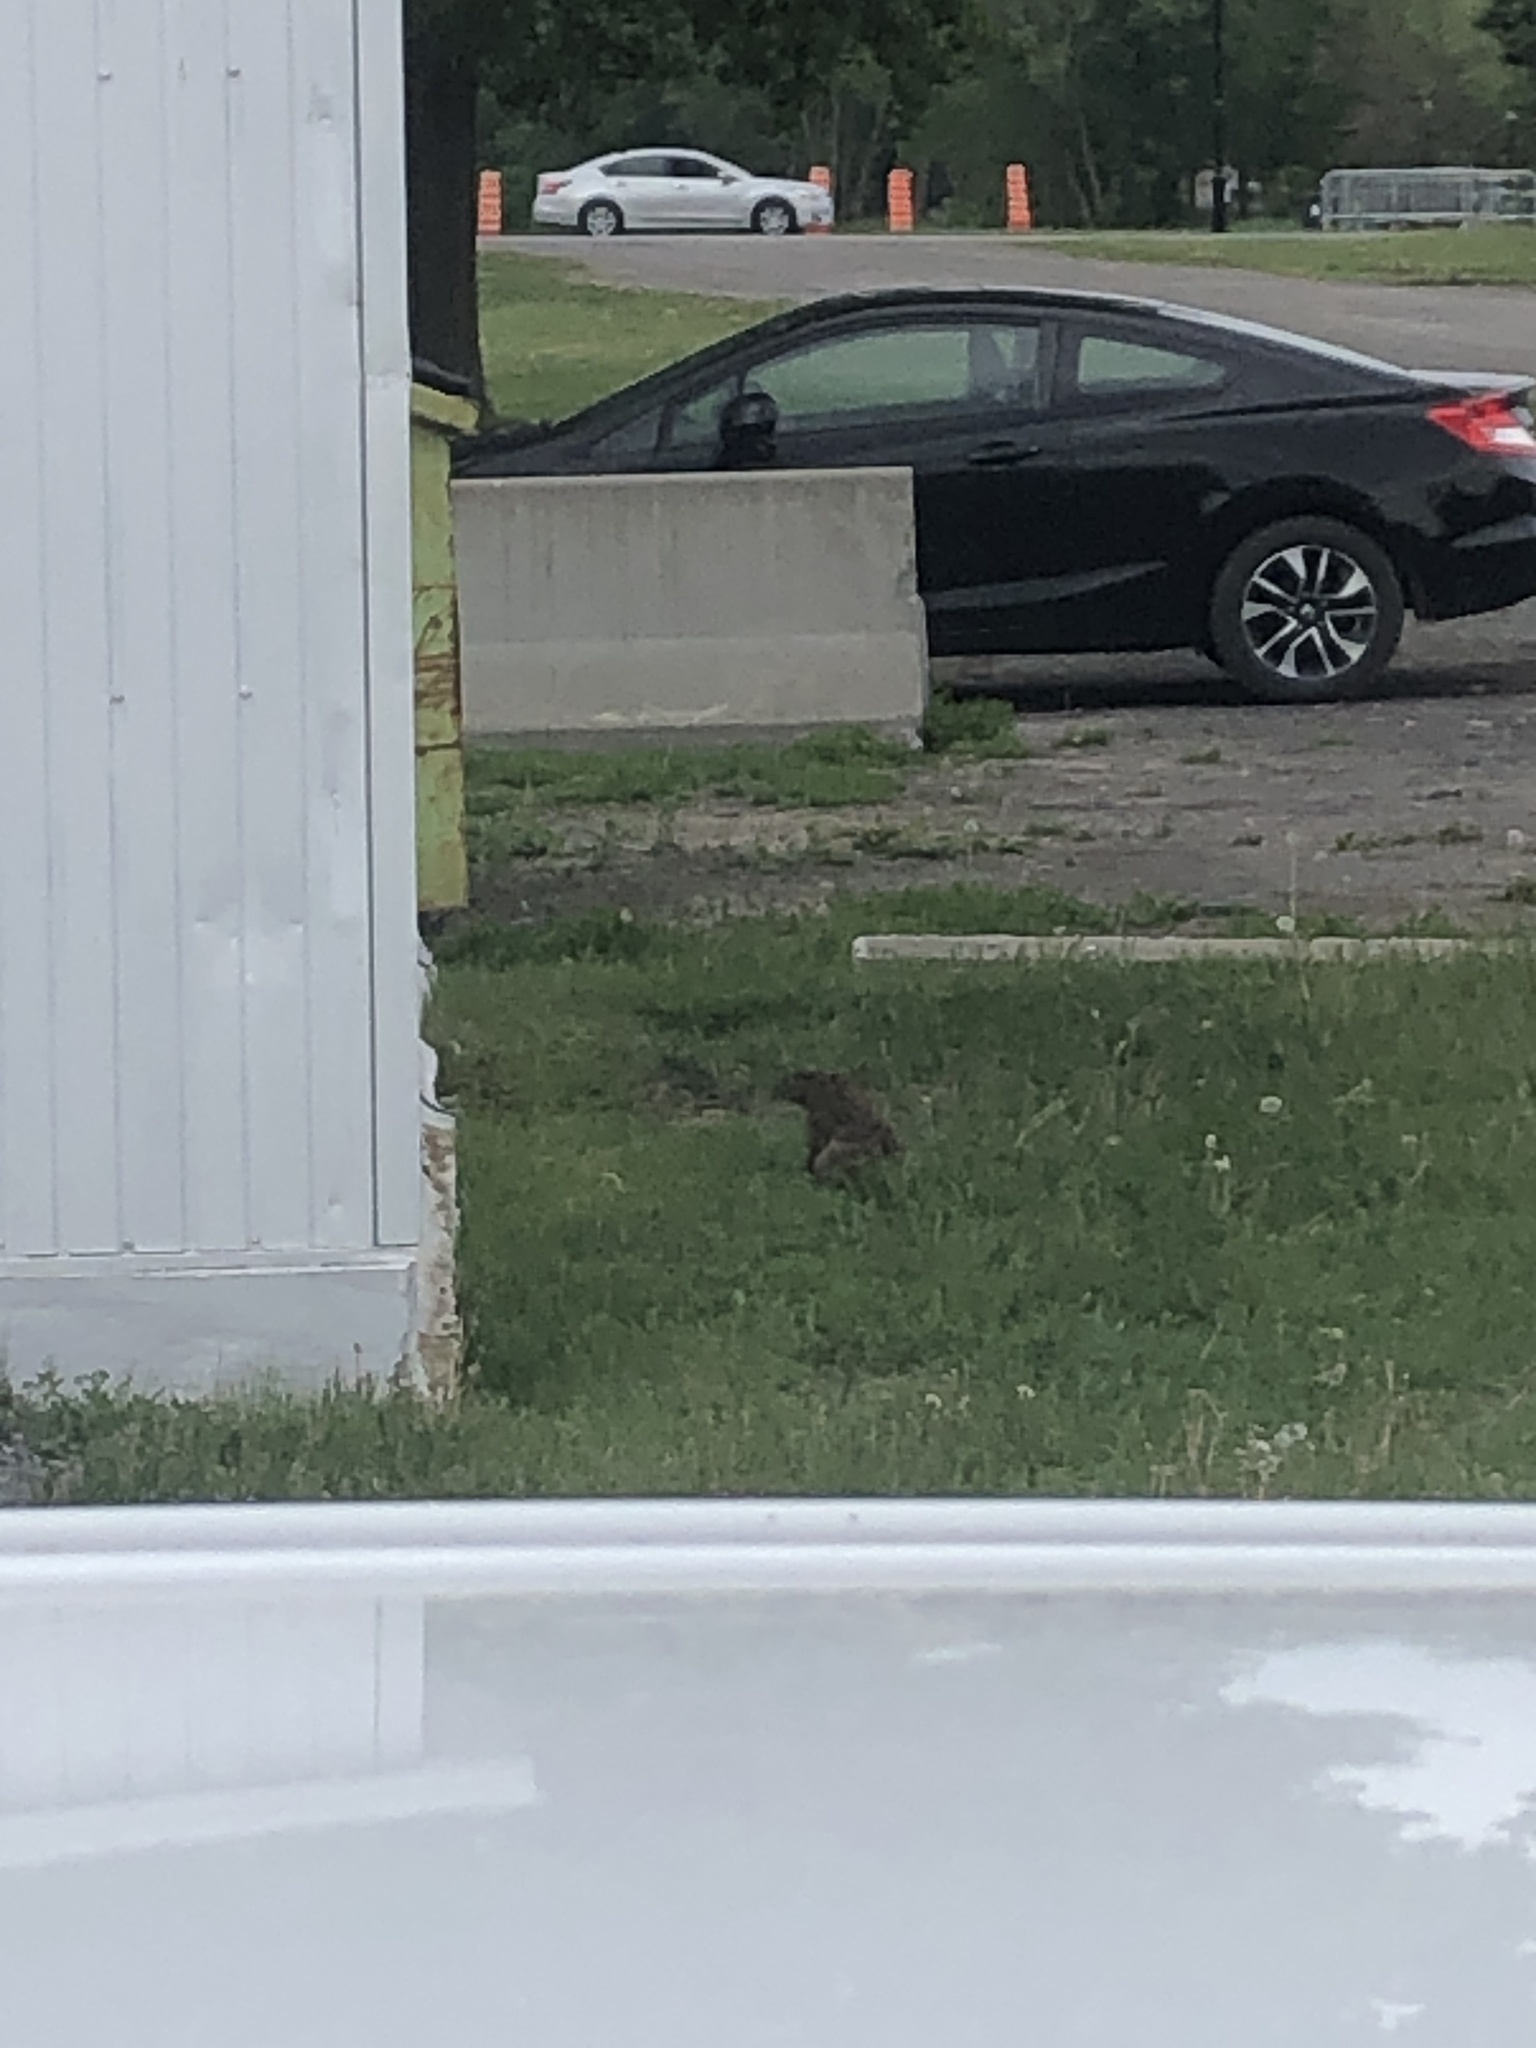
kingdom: Animalia
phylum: Chordata
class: Mammalia
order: Rodentia
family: Sciuridae
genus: Marmota
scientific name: Marmota monax
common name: Groundhog
